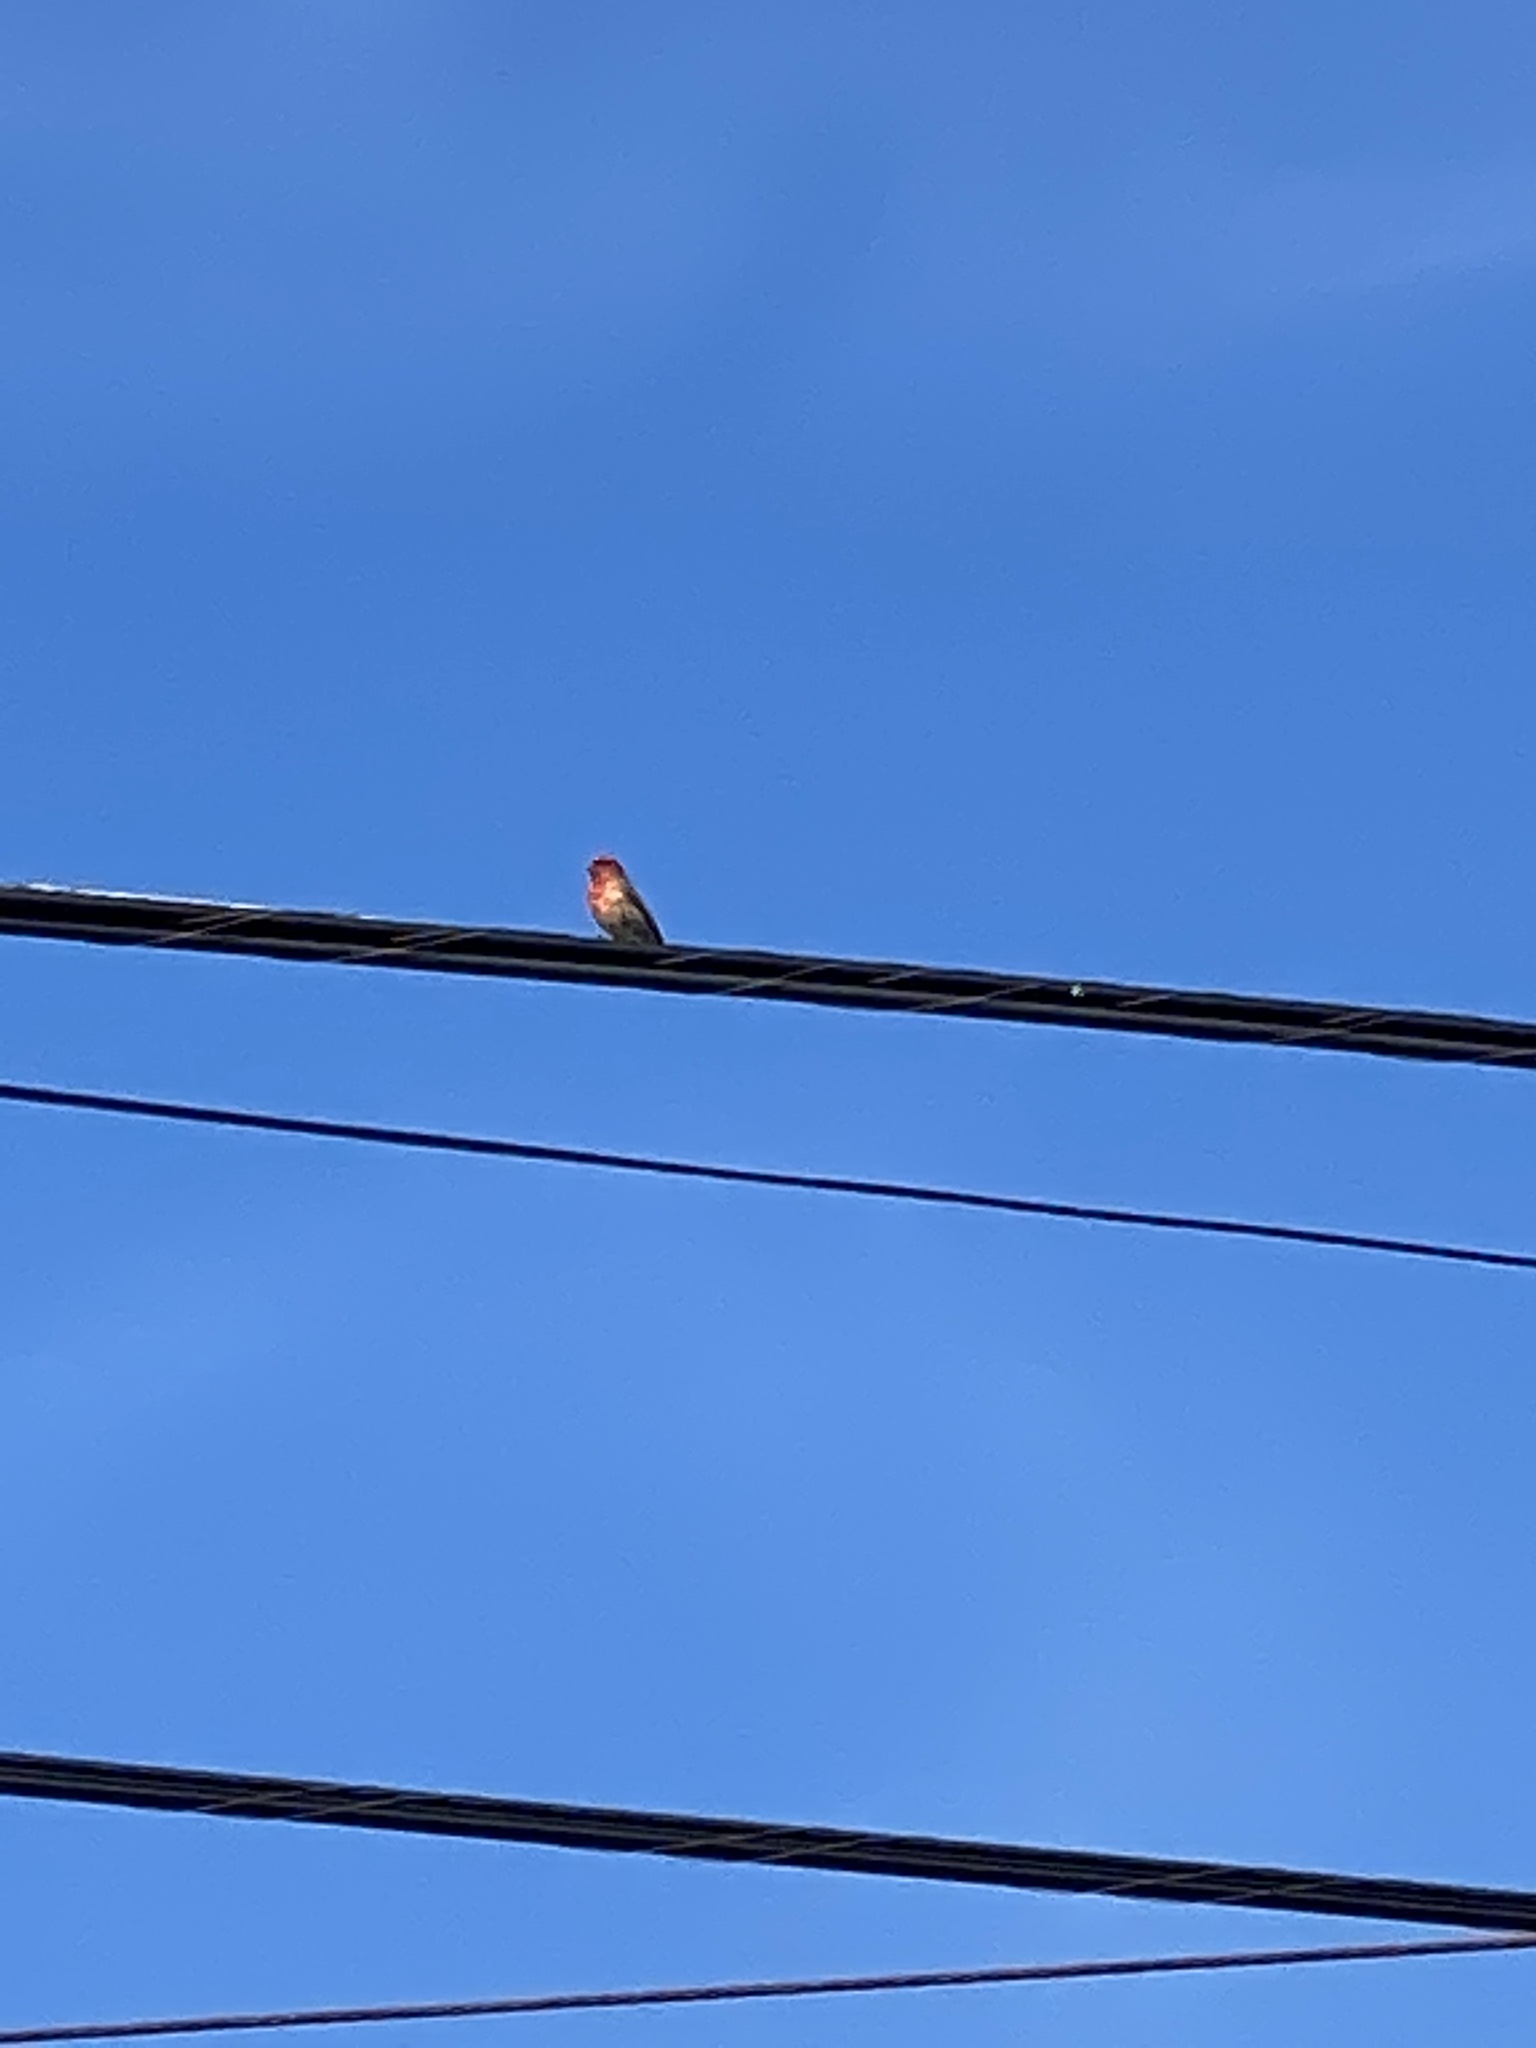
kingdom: Animalia
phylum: Chordata
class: Aves
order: Passeriformes
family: Fringillidae
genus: Haemorhous
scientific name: Haemorhous mexicanus
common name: House finch
